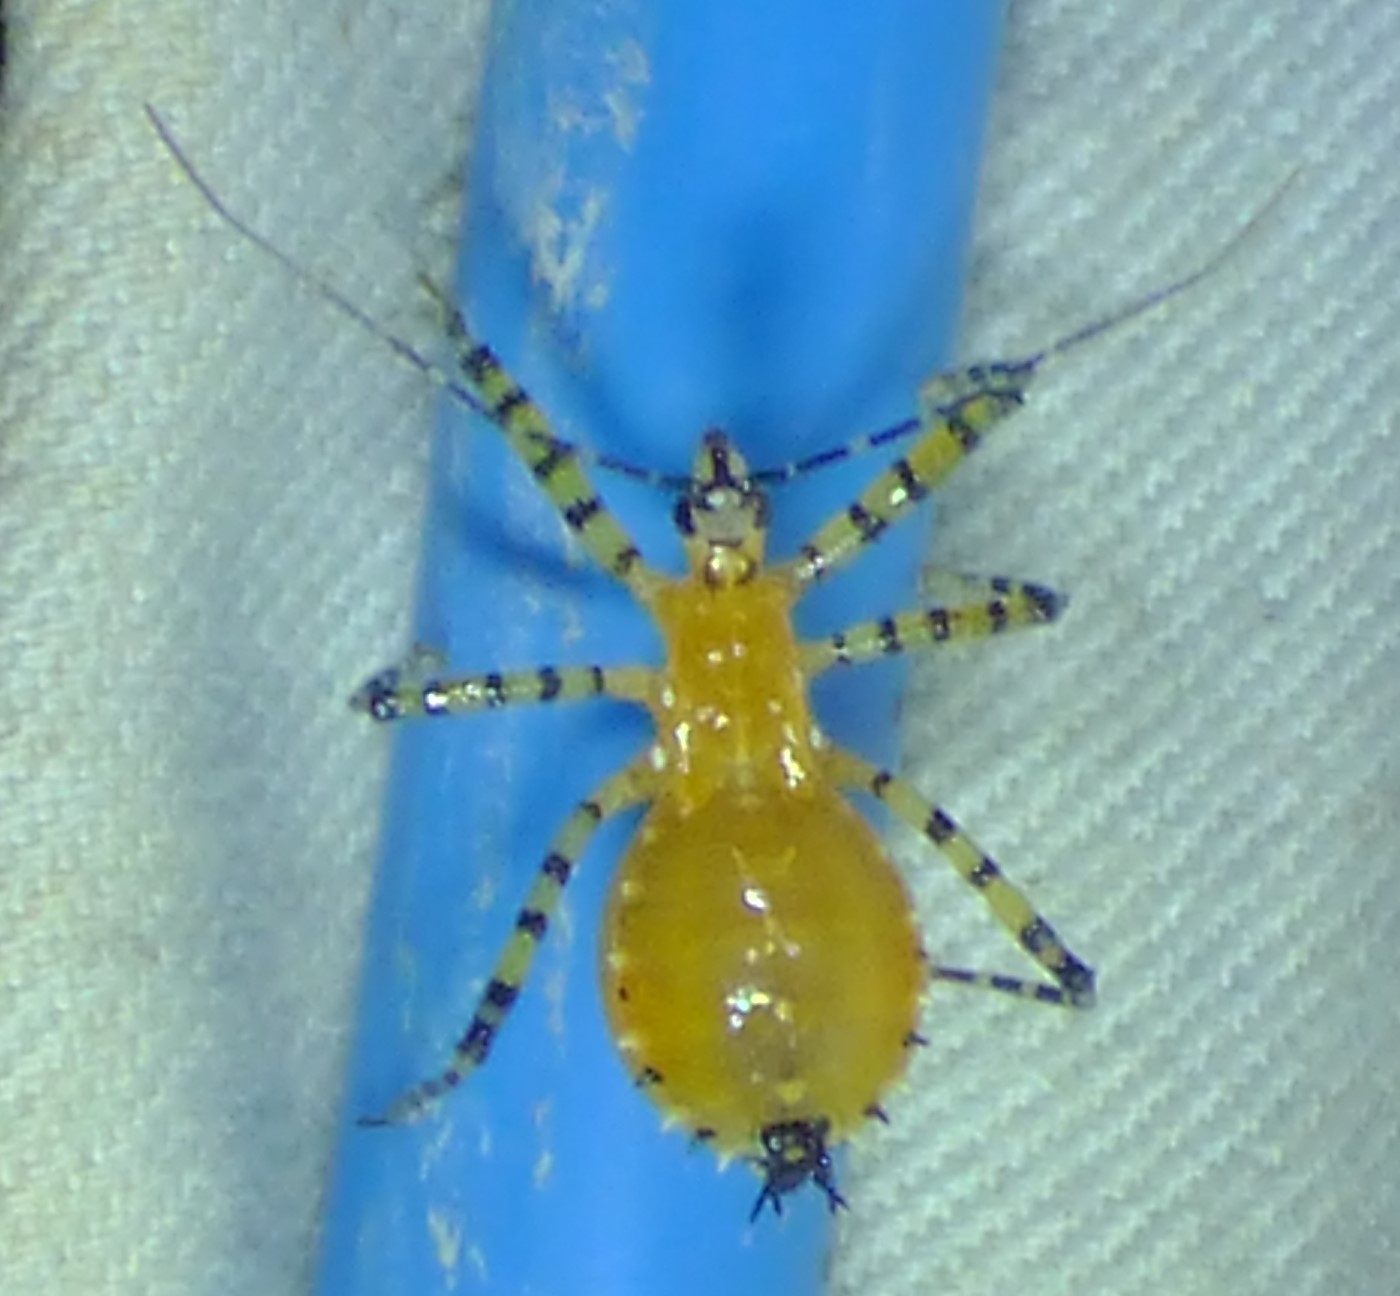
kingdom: Animalia
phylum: Arthropoda
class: Insecta
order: Hemiptera
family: Reduviidae
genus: Pselliopus
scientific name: Pselliopus barberi
